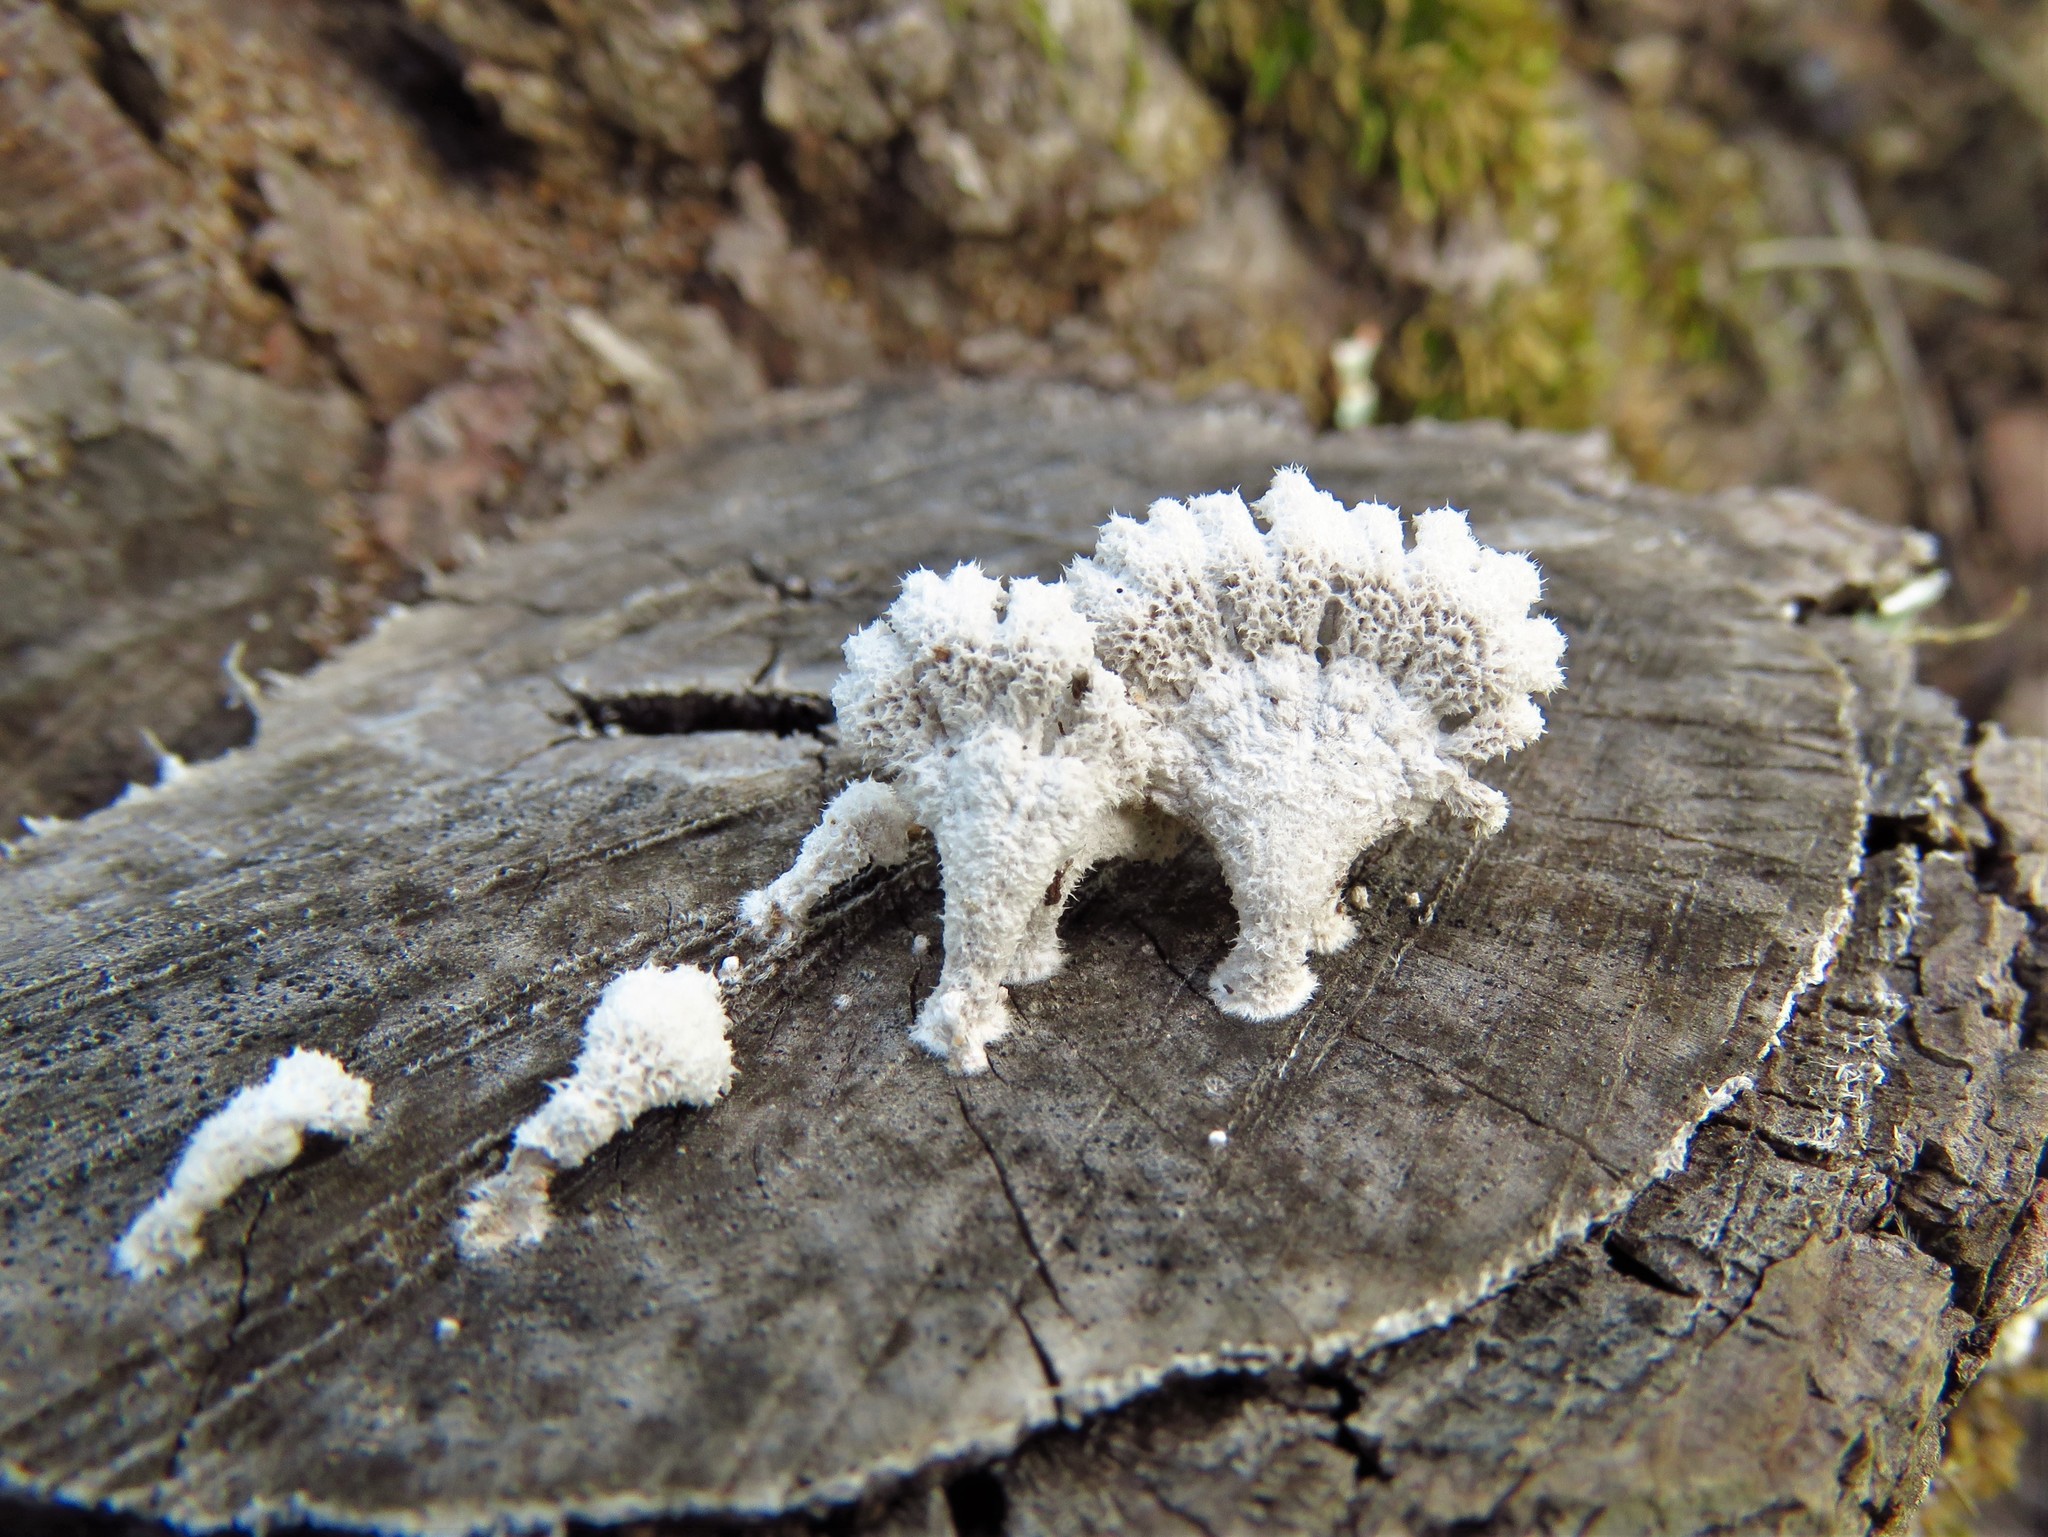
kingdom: Fungi
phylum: Basidiomycota
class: Agaricomycetes
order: Agaricales
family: Schizophyllaceae
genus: Schizophyllum
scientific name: Schizophyllum commune
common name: Common porecrust
